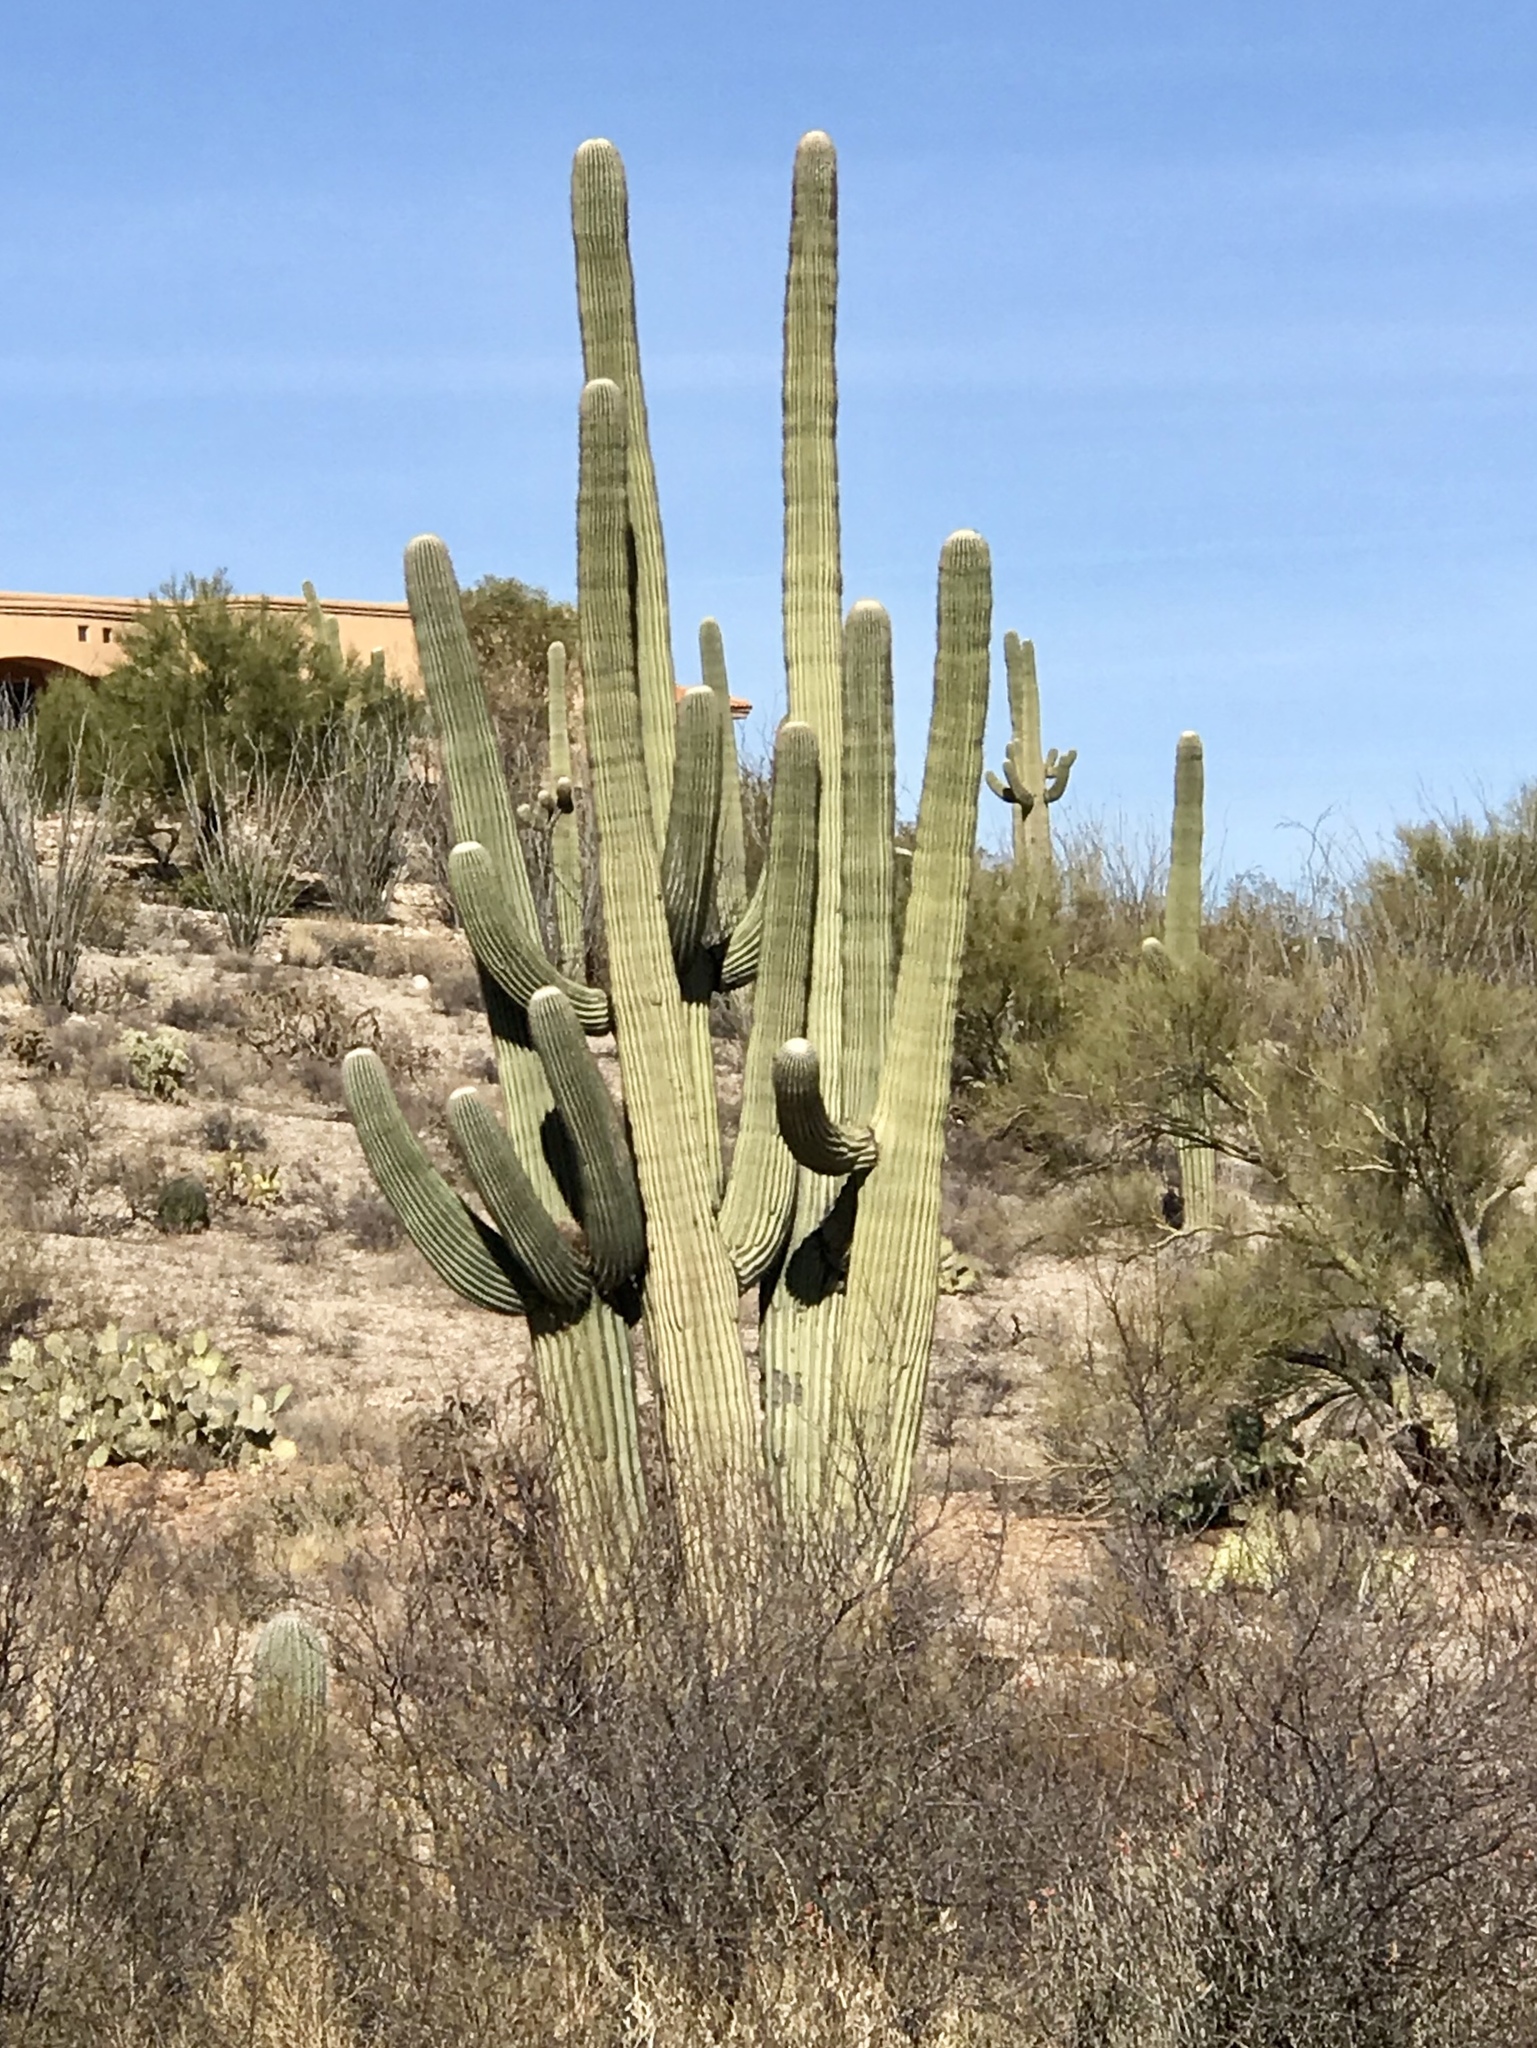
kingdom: Plantae
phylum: Tracheophyta
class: Magnoliopsida
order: Caryophyllales
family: Cactaceae
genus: Carnegiea
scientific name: Carnegiea gigantea
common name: Saguaro
